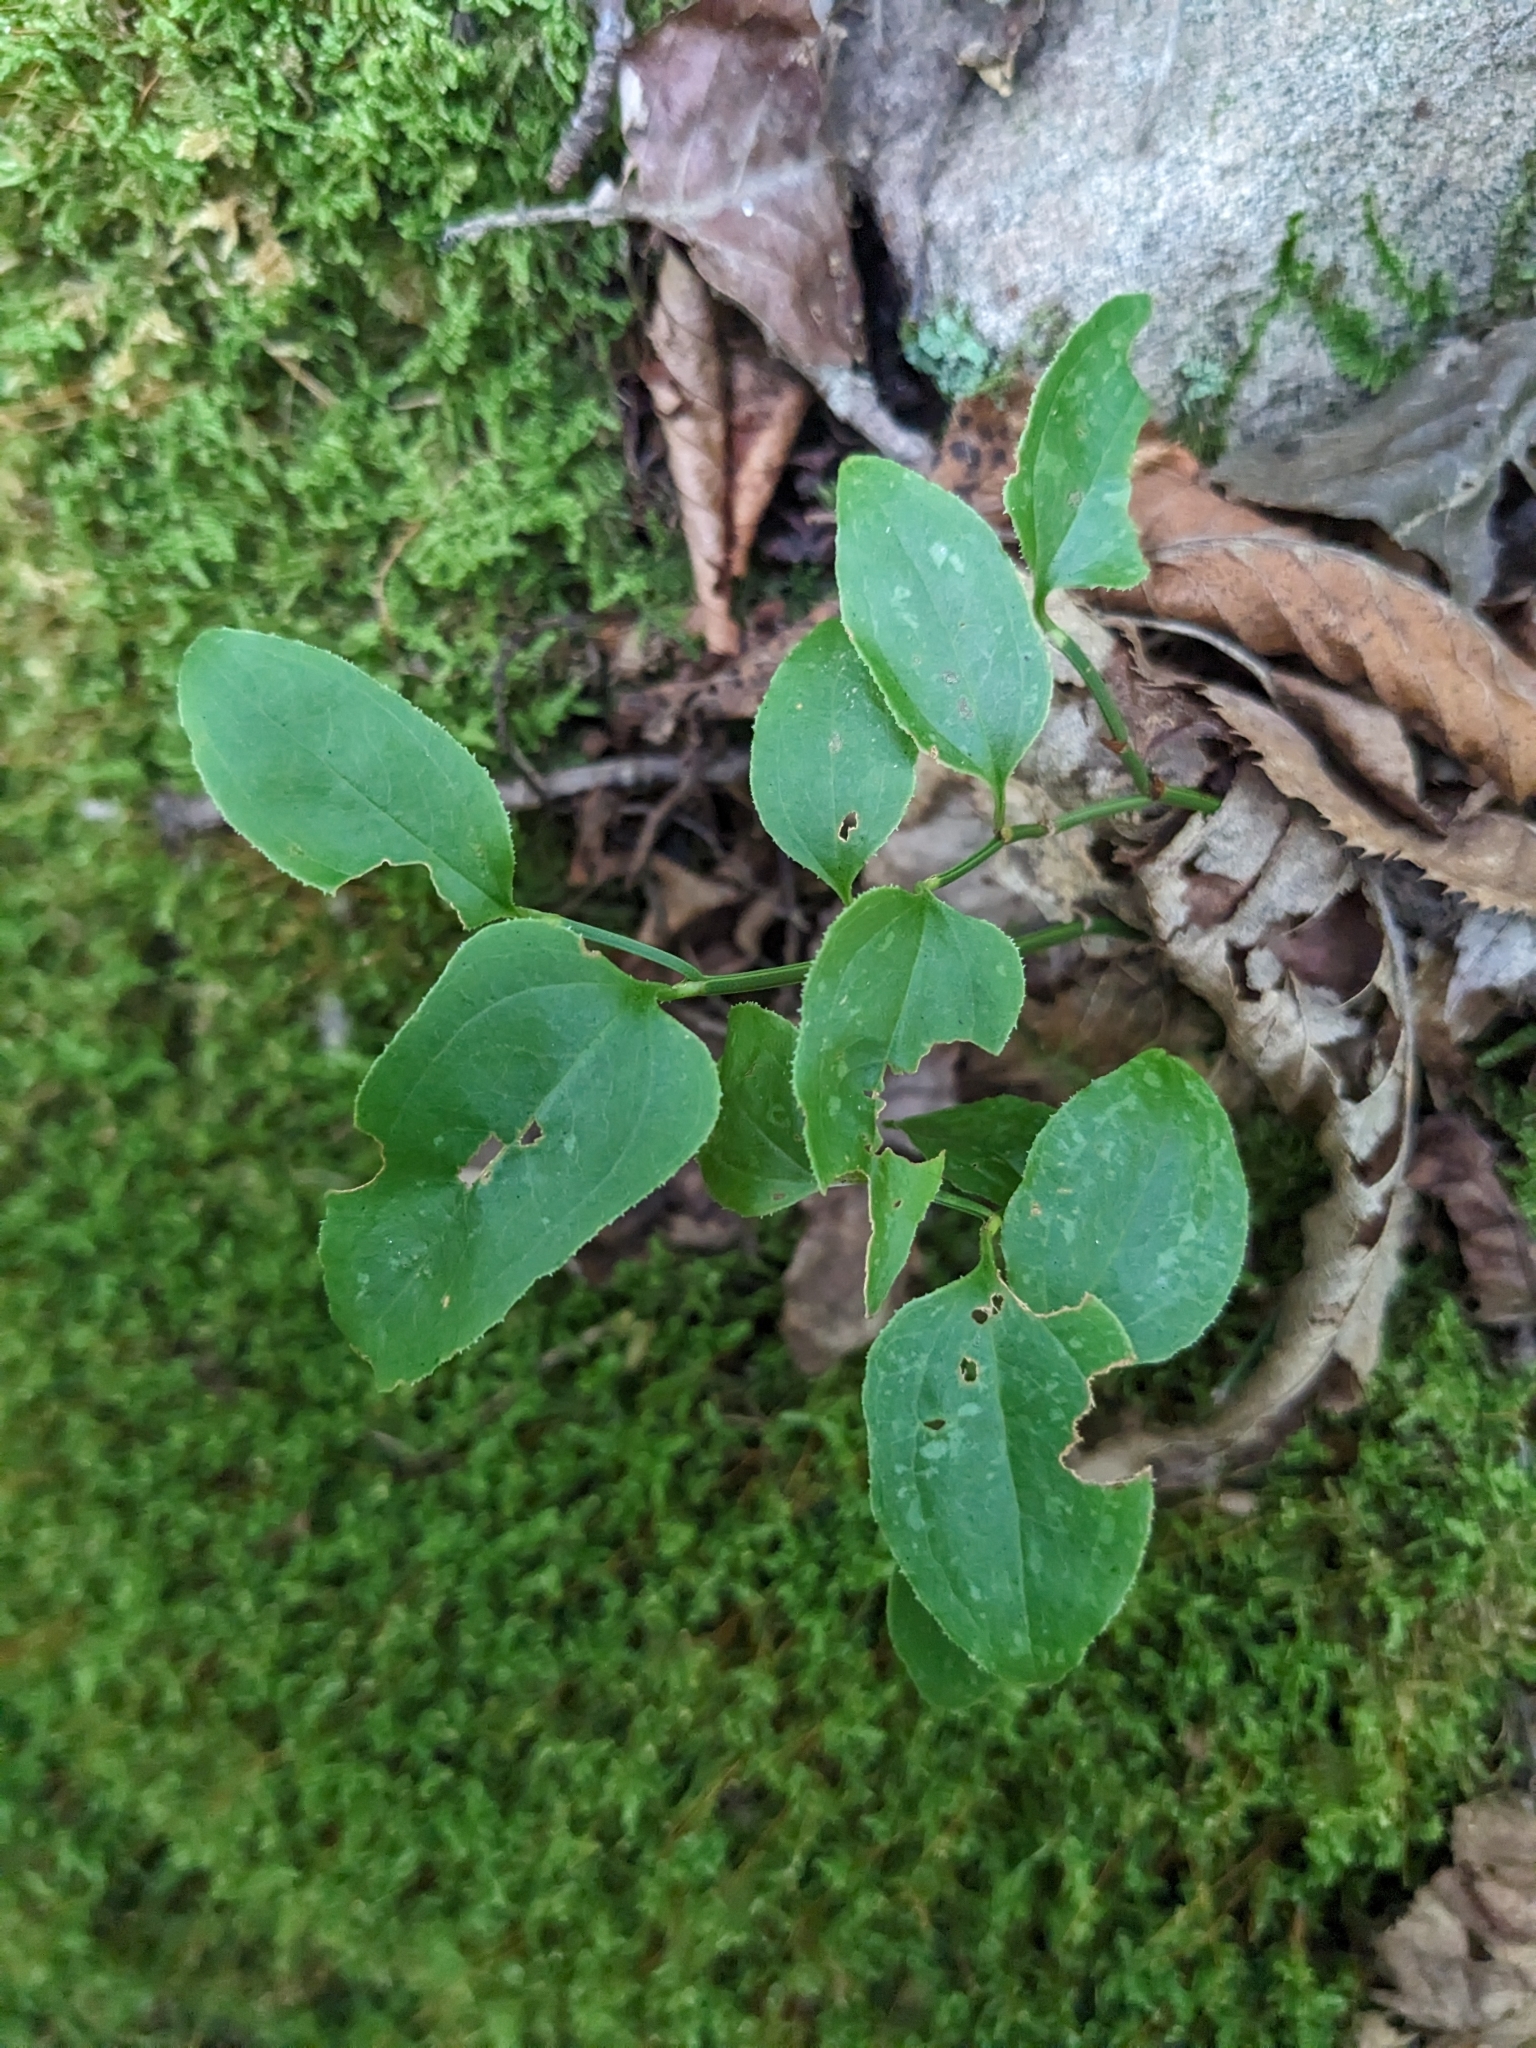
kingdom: Plantae
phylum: Tracheophyta
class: Liliopsida
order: Liliales
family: Smilacaceae
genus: Smilax
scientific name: Smilax rotundifolia
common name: Bullbriar
